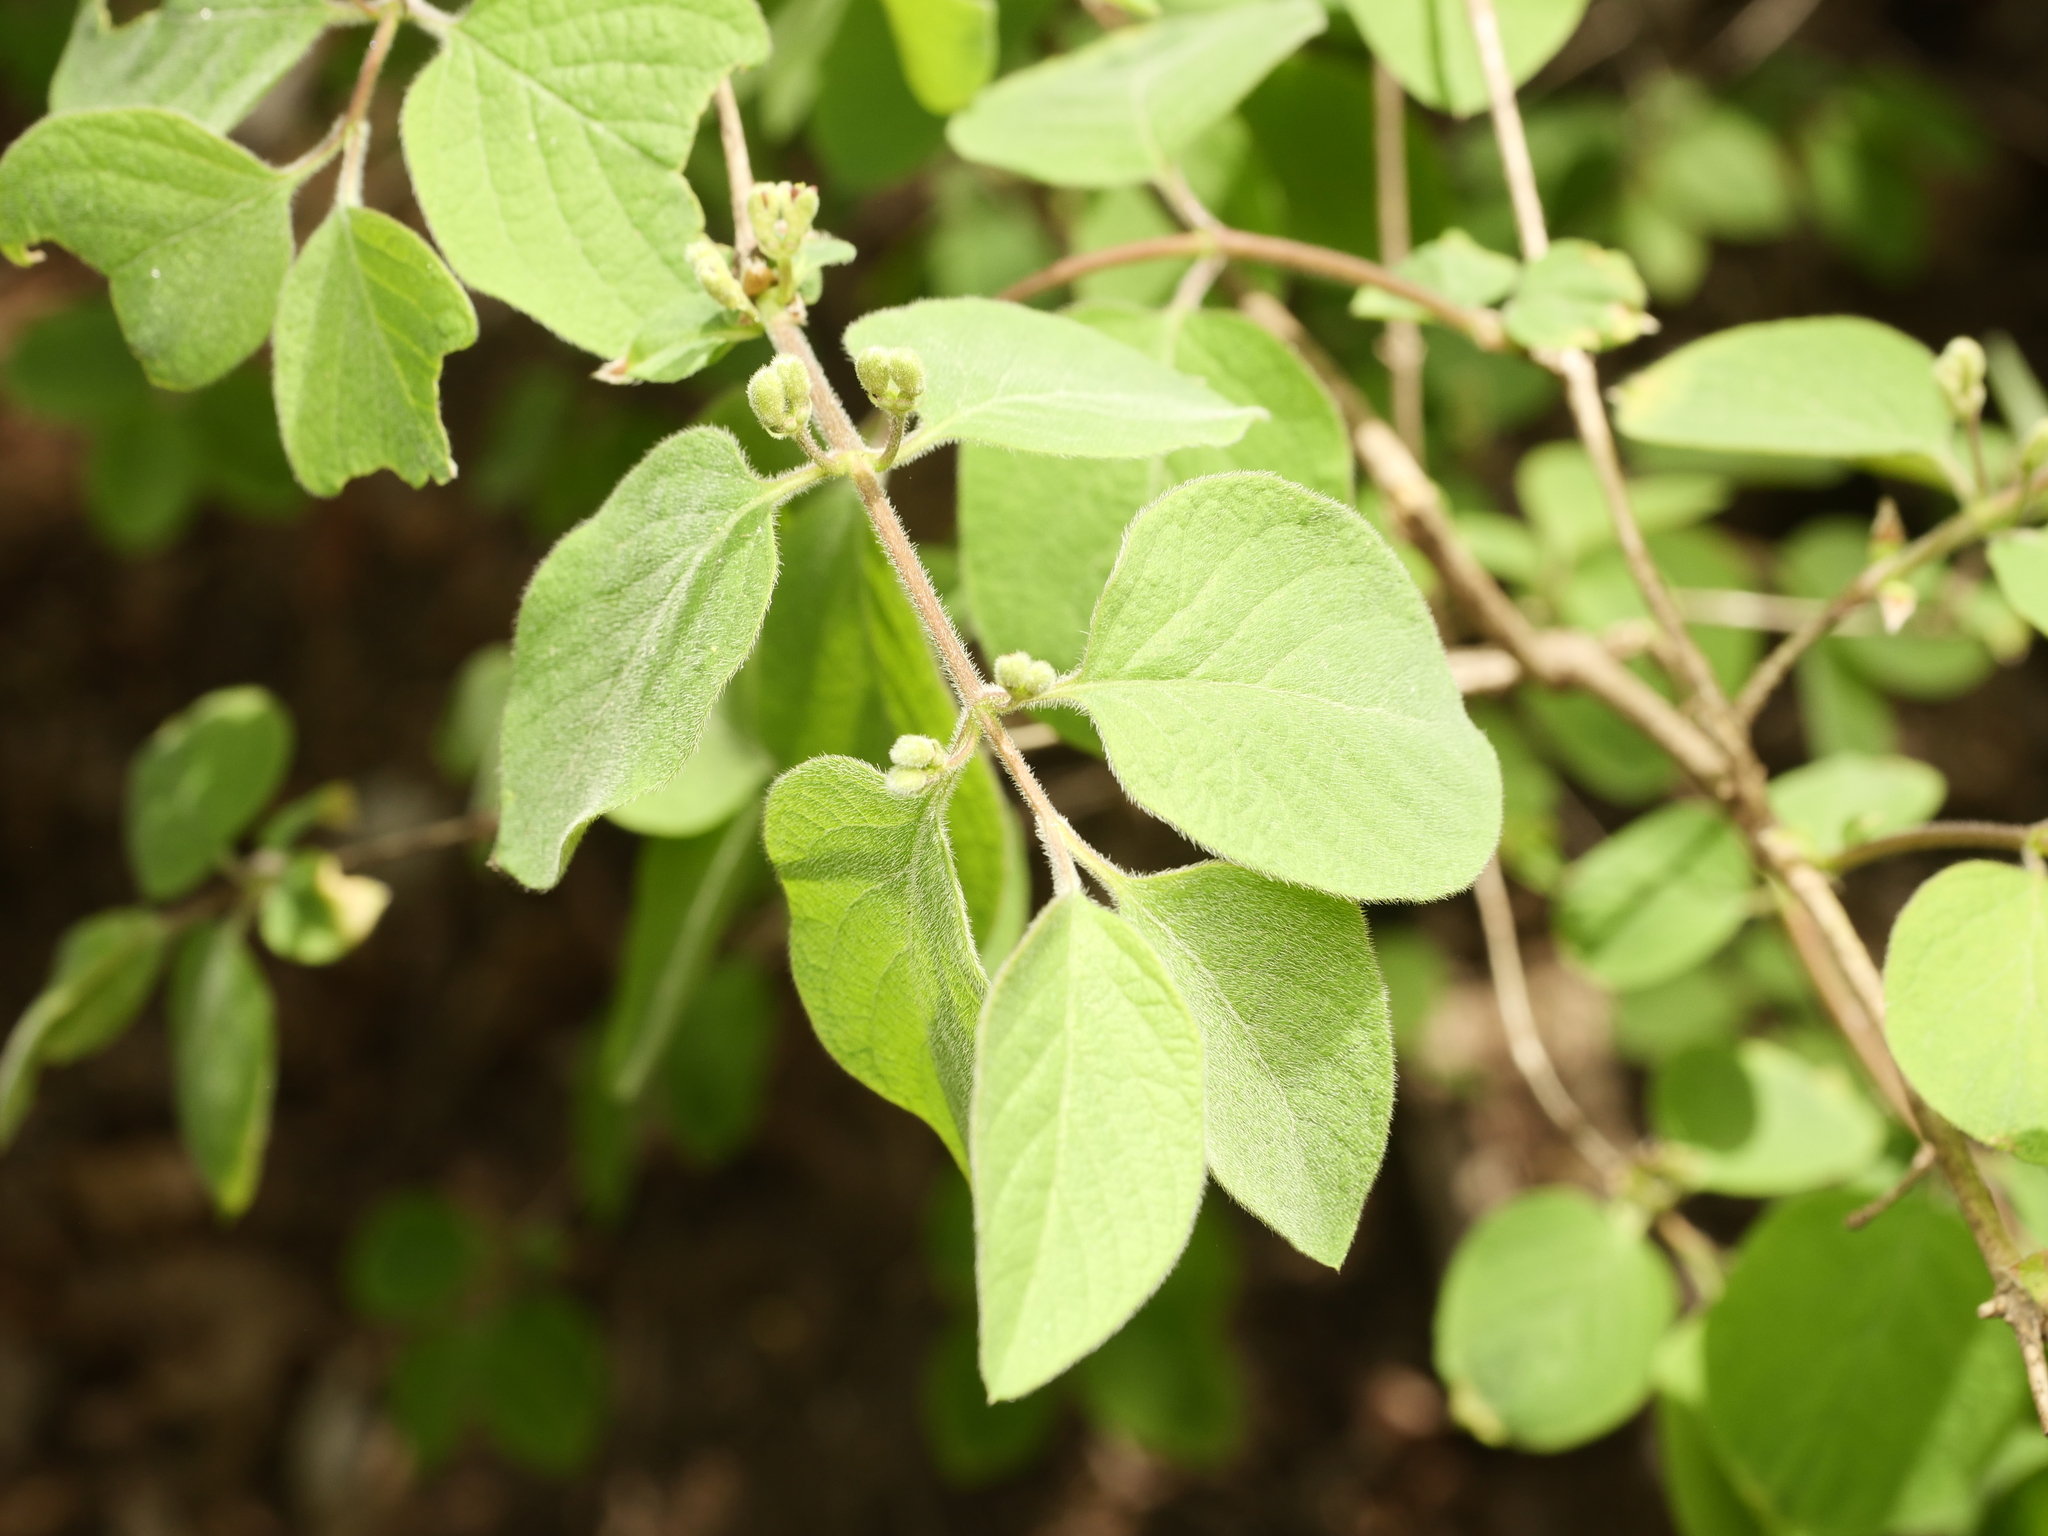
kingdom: Plantae
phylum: Tracheophyta
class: Magnoliopsida
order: Dipsacales
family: Caprifoliaceae
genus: Lonicera
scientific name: Lonicera xylosteum
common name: Fly honeysuckle
